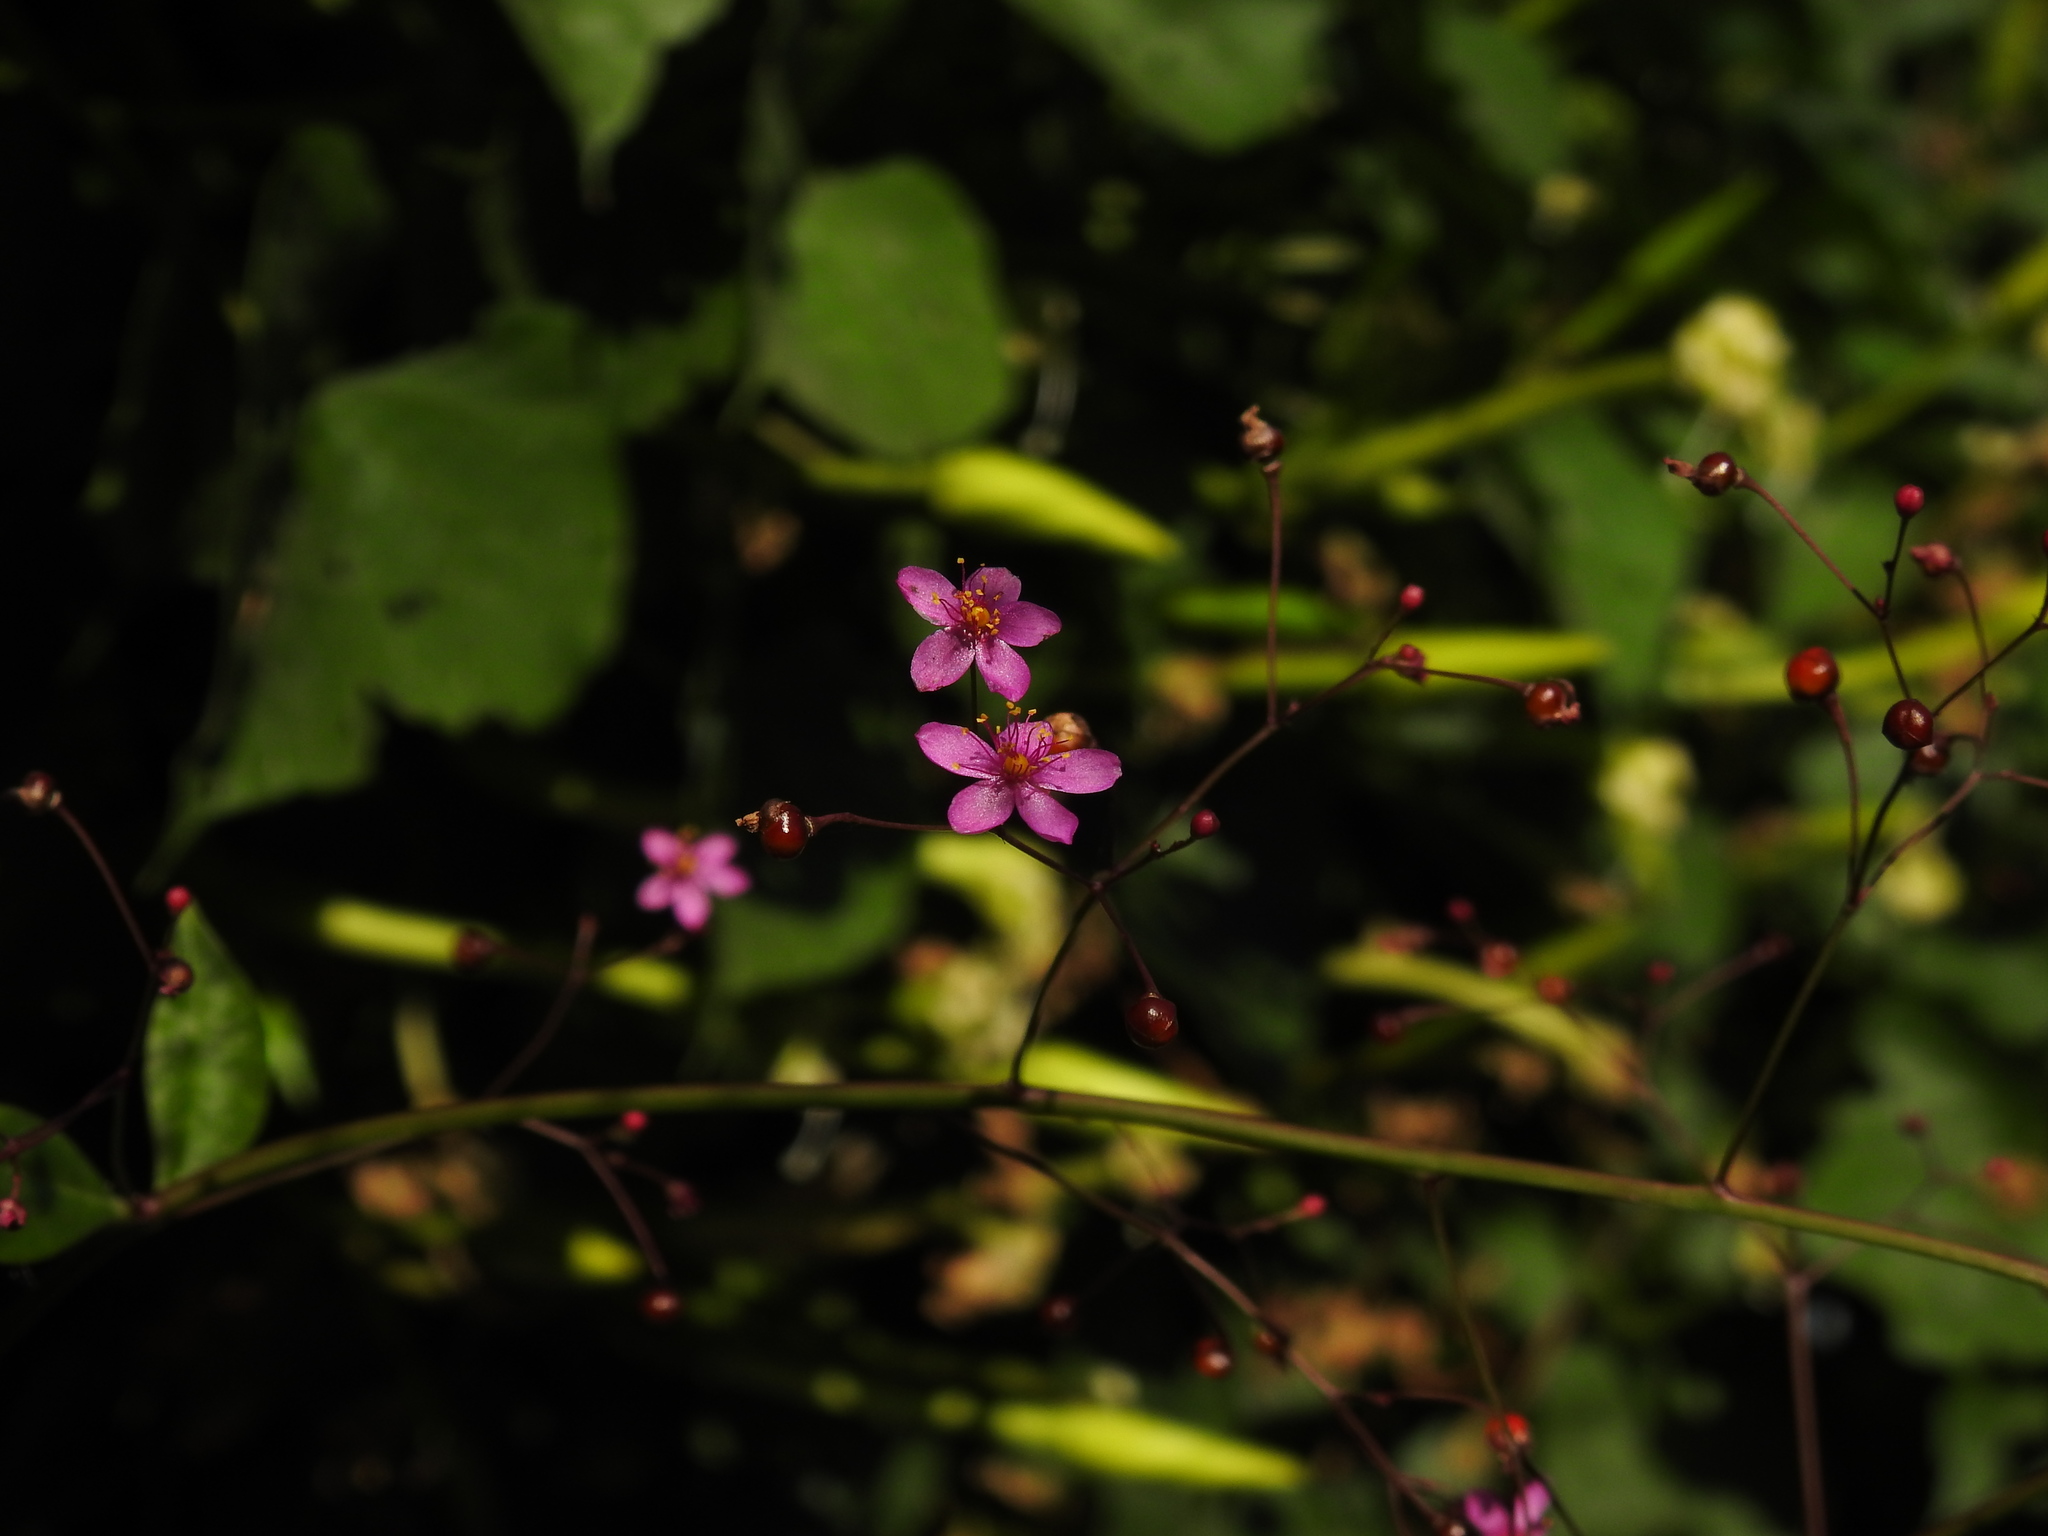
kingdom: Plantae
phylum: Tracheophyta
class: Magnoliopsida
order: Caryophyllales
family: Talinaceae
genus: Talinum
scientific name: Talinum paniculatum
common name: Jewels of opar
